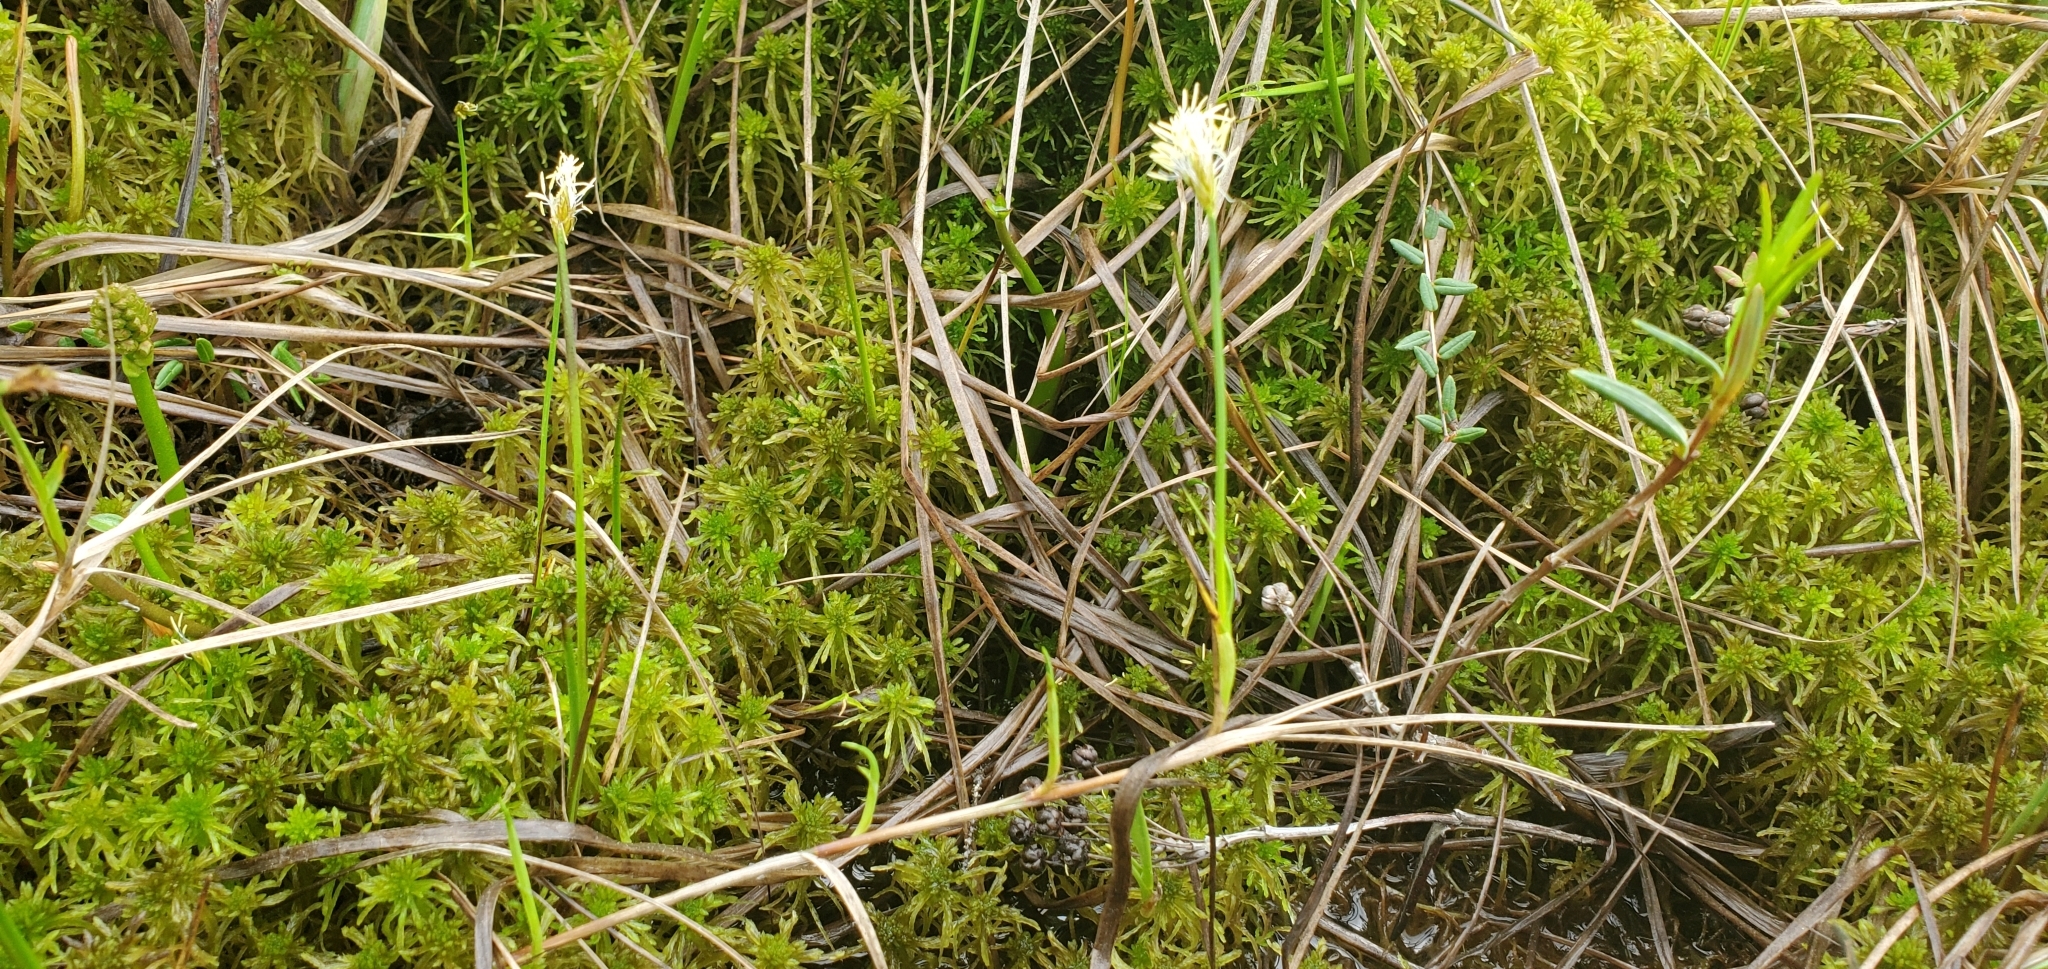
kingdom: Plantae
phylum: Tracheophyta
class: Liliopsida
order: Poales
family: Cyperaceae
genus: Carex
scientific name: Carex chordorrhiza
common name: String sedge
